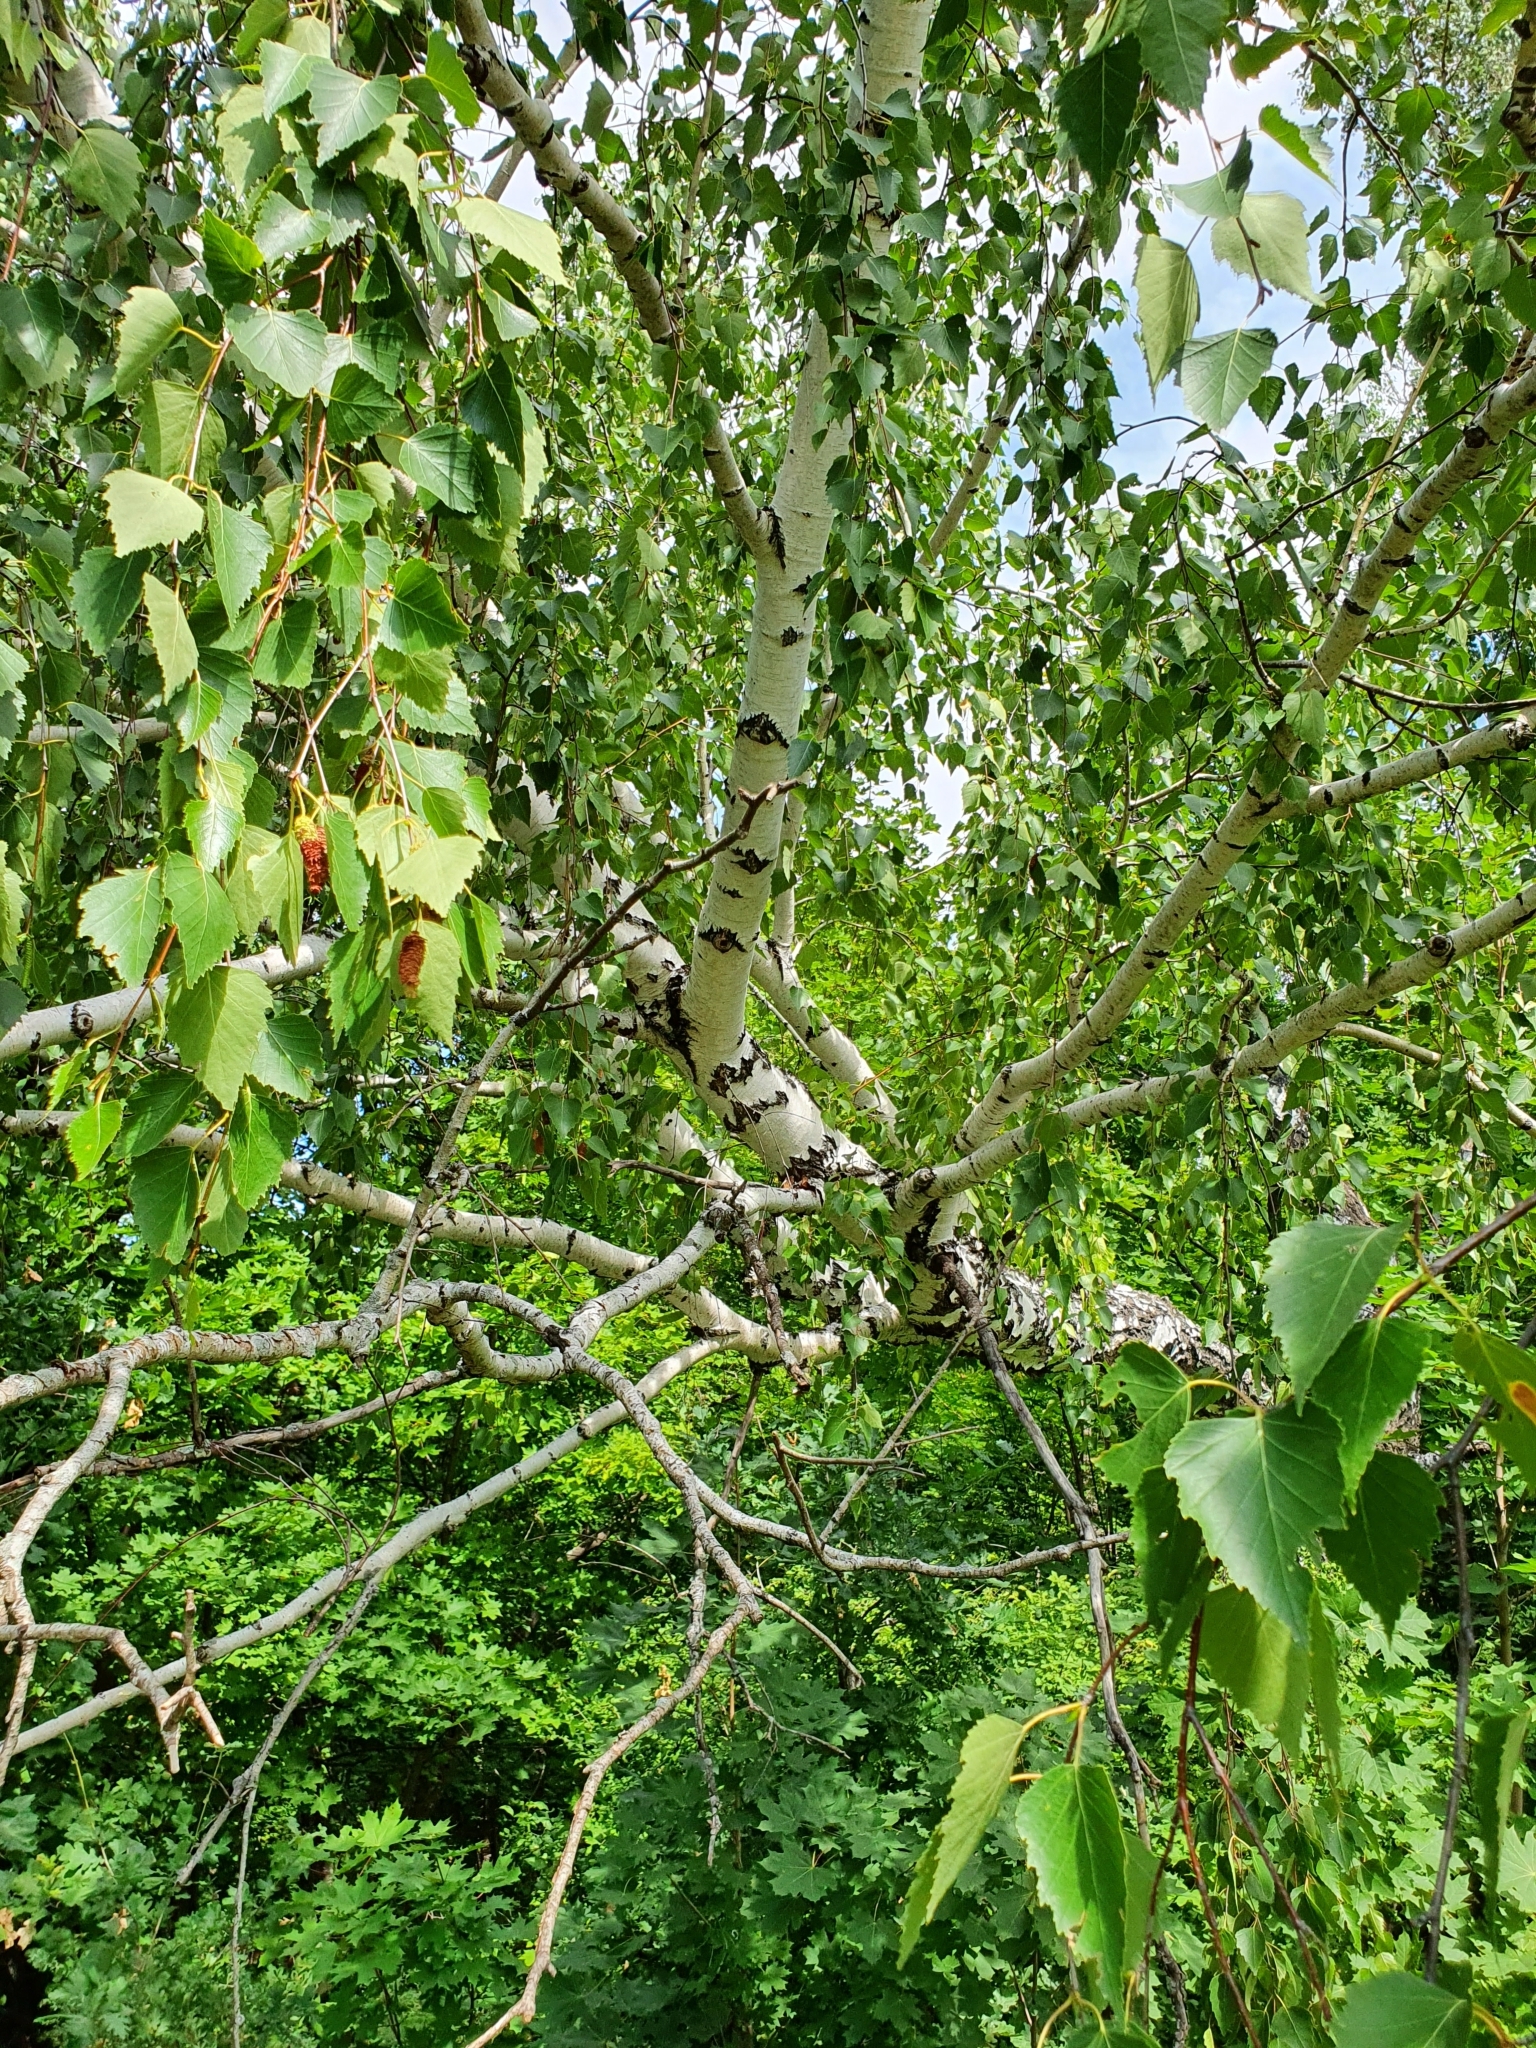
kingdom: Plantae
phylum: Tracheophyta
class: Magnoliopsida
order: Fagales
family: Betulaceae
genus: Betula
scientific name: Betula pendula
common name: Silver birch
